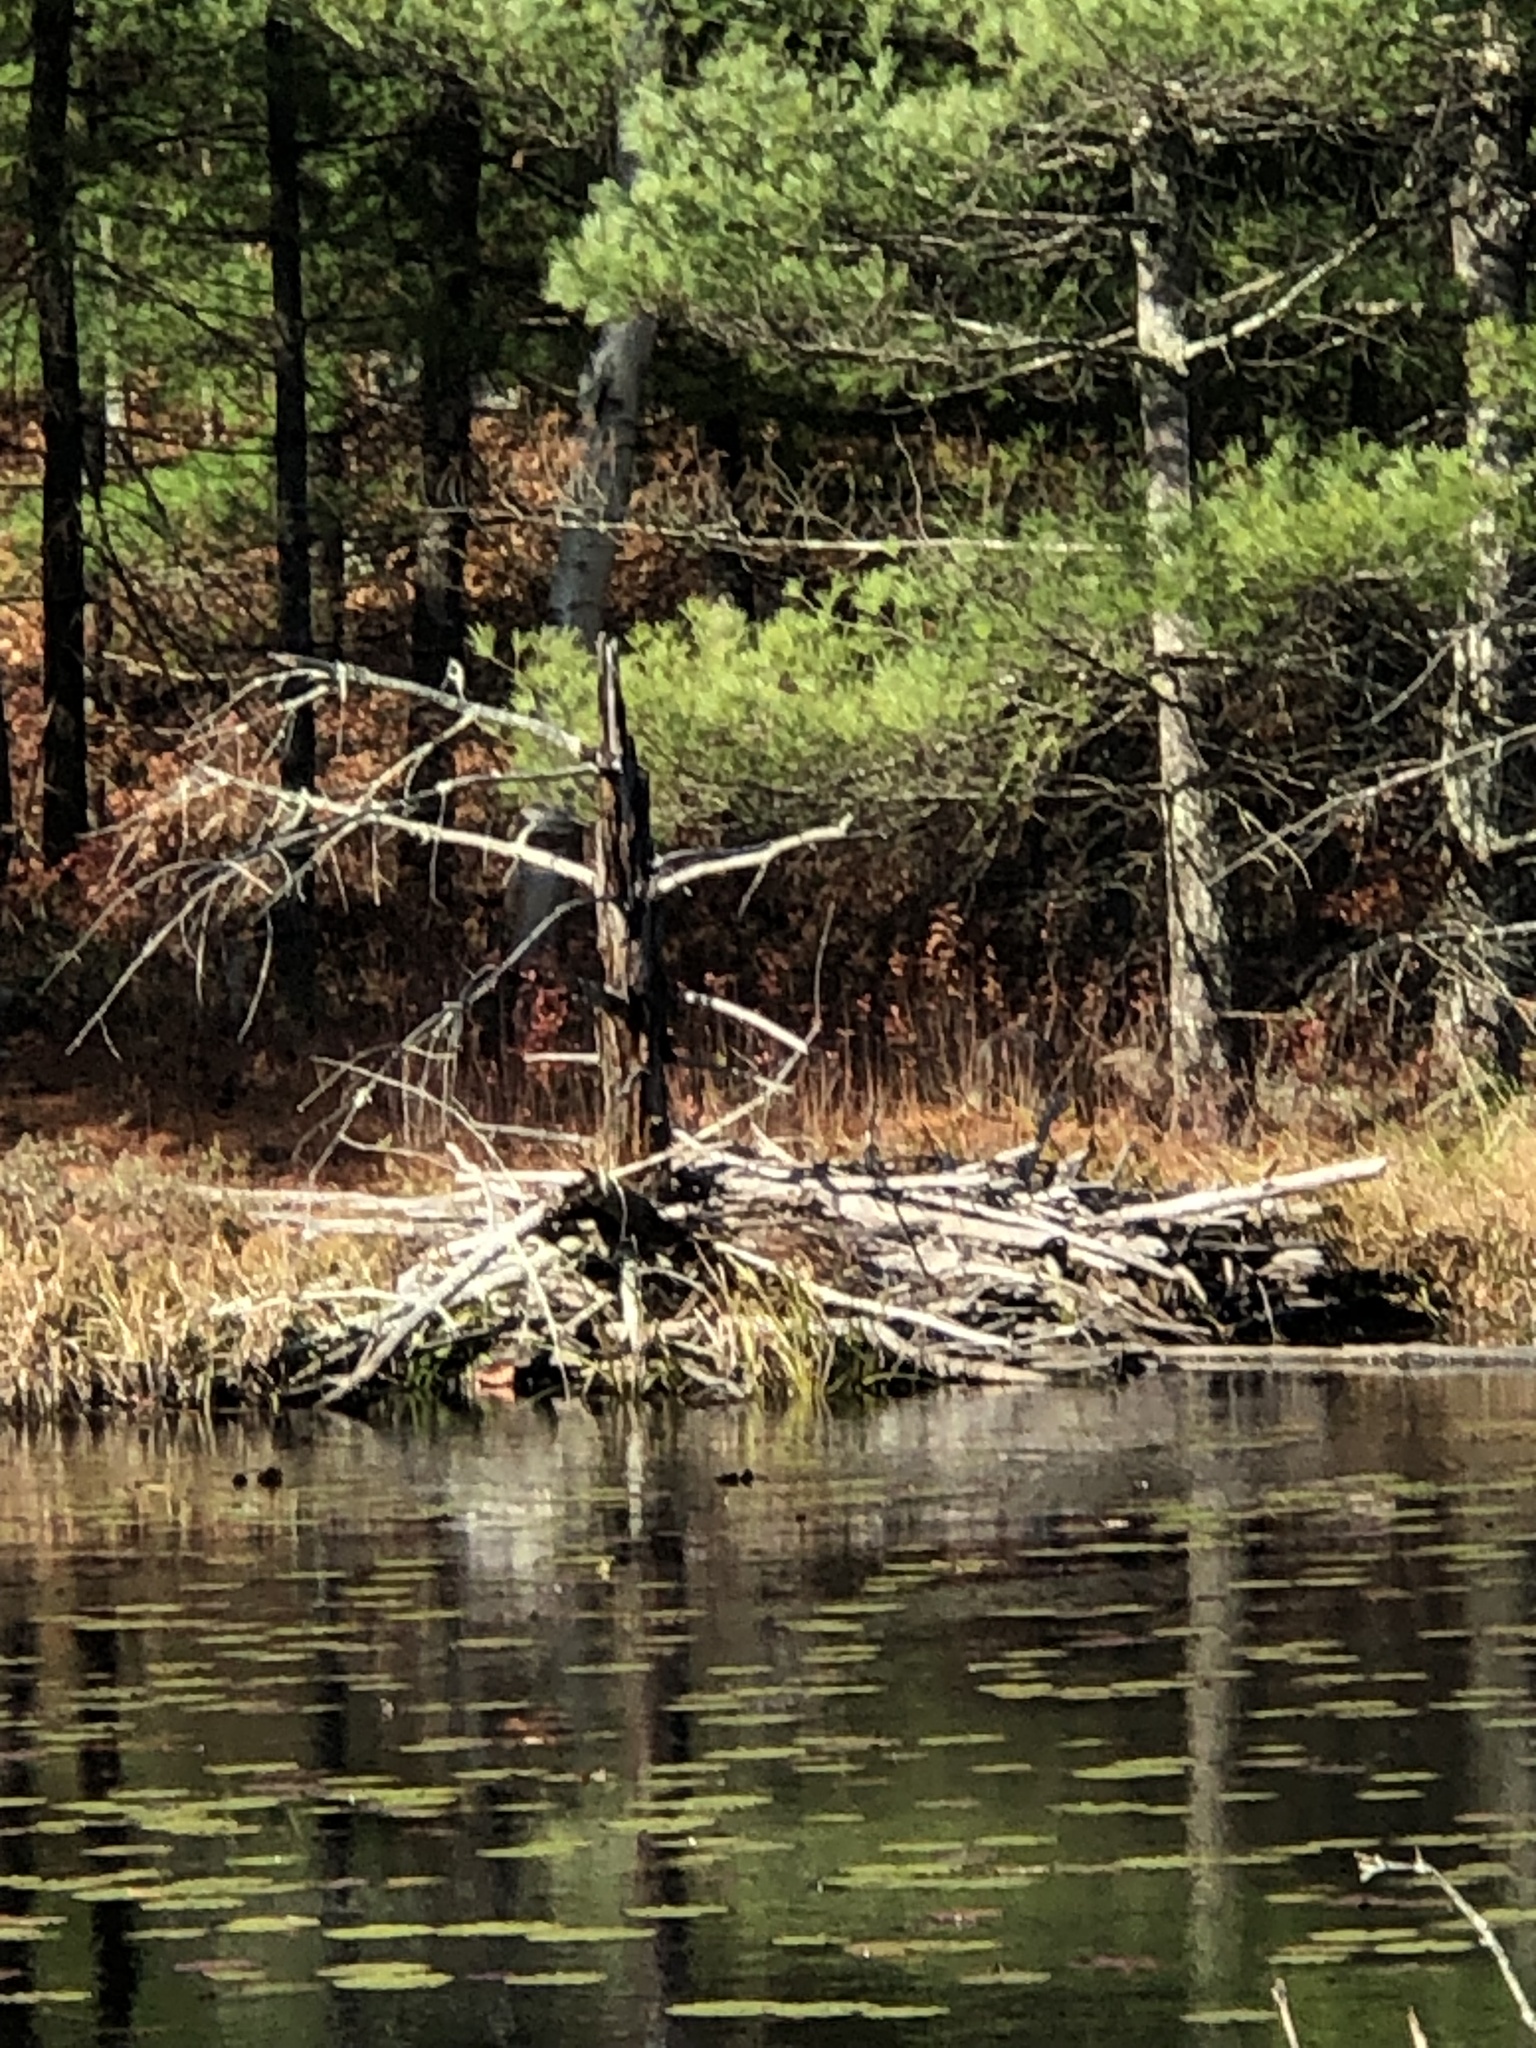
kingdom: Animalia
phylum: Chordata
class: Mammalia
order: Rodentia
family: Castoridae
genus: Castor
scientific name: Castor canadensis
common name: American beaver
